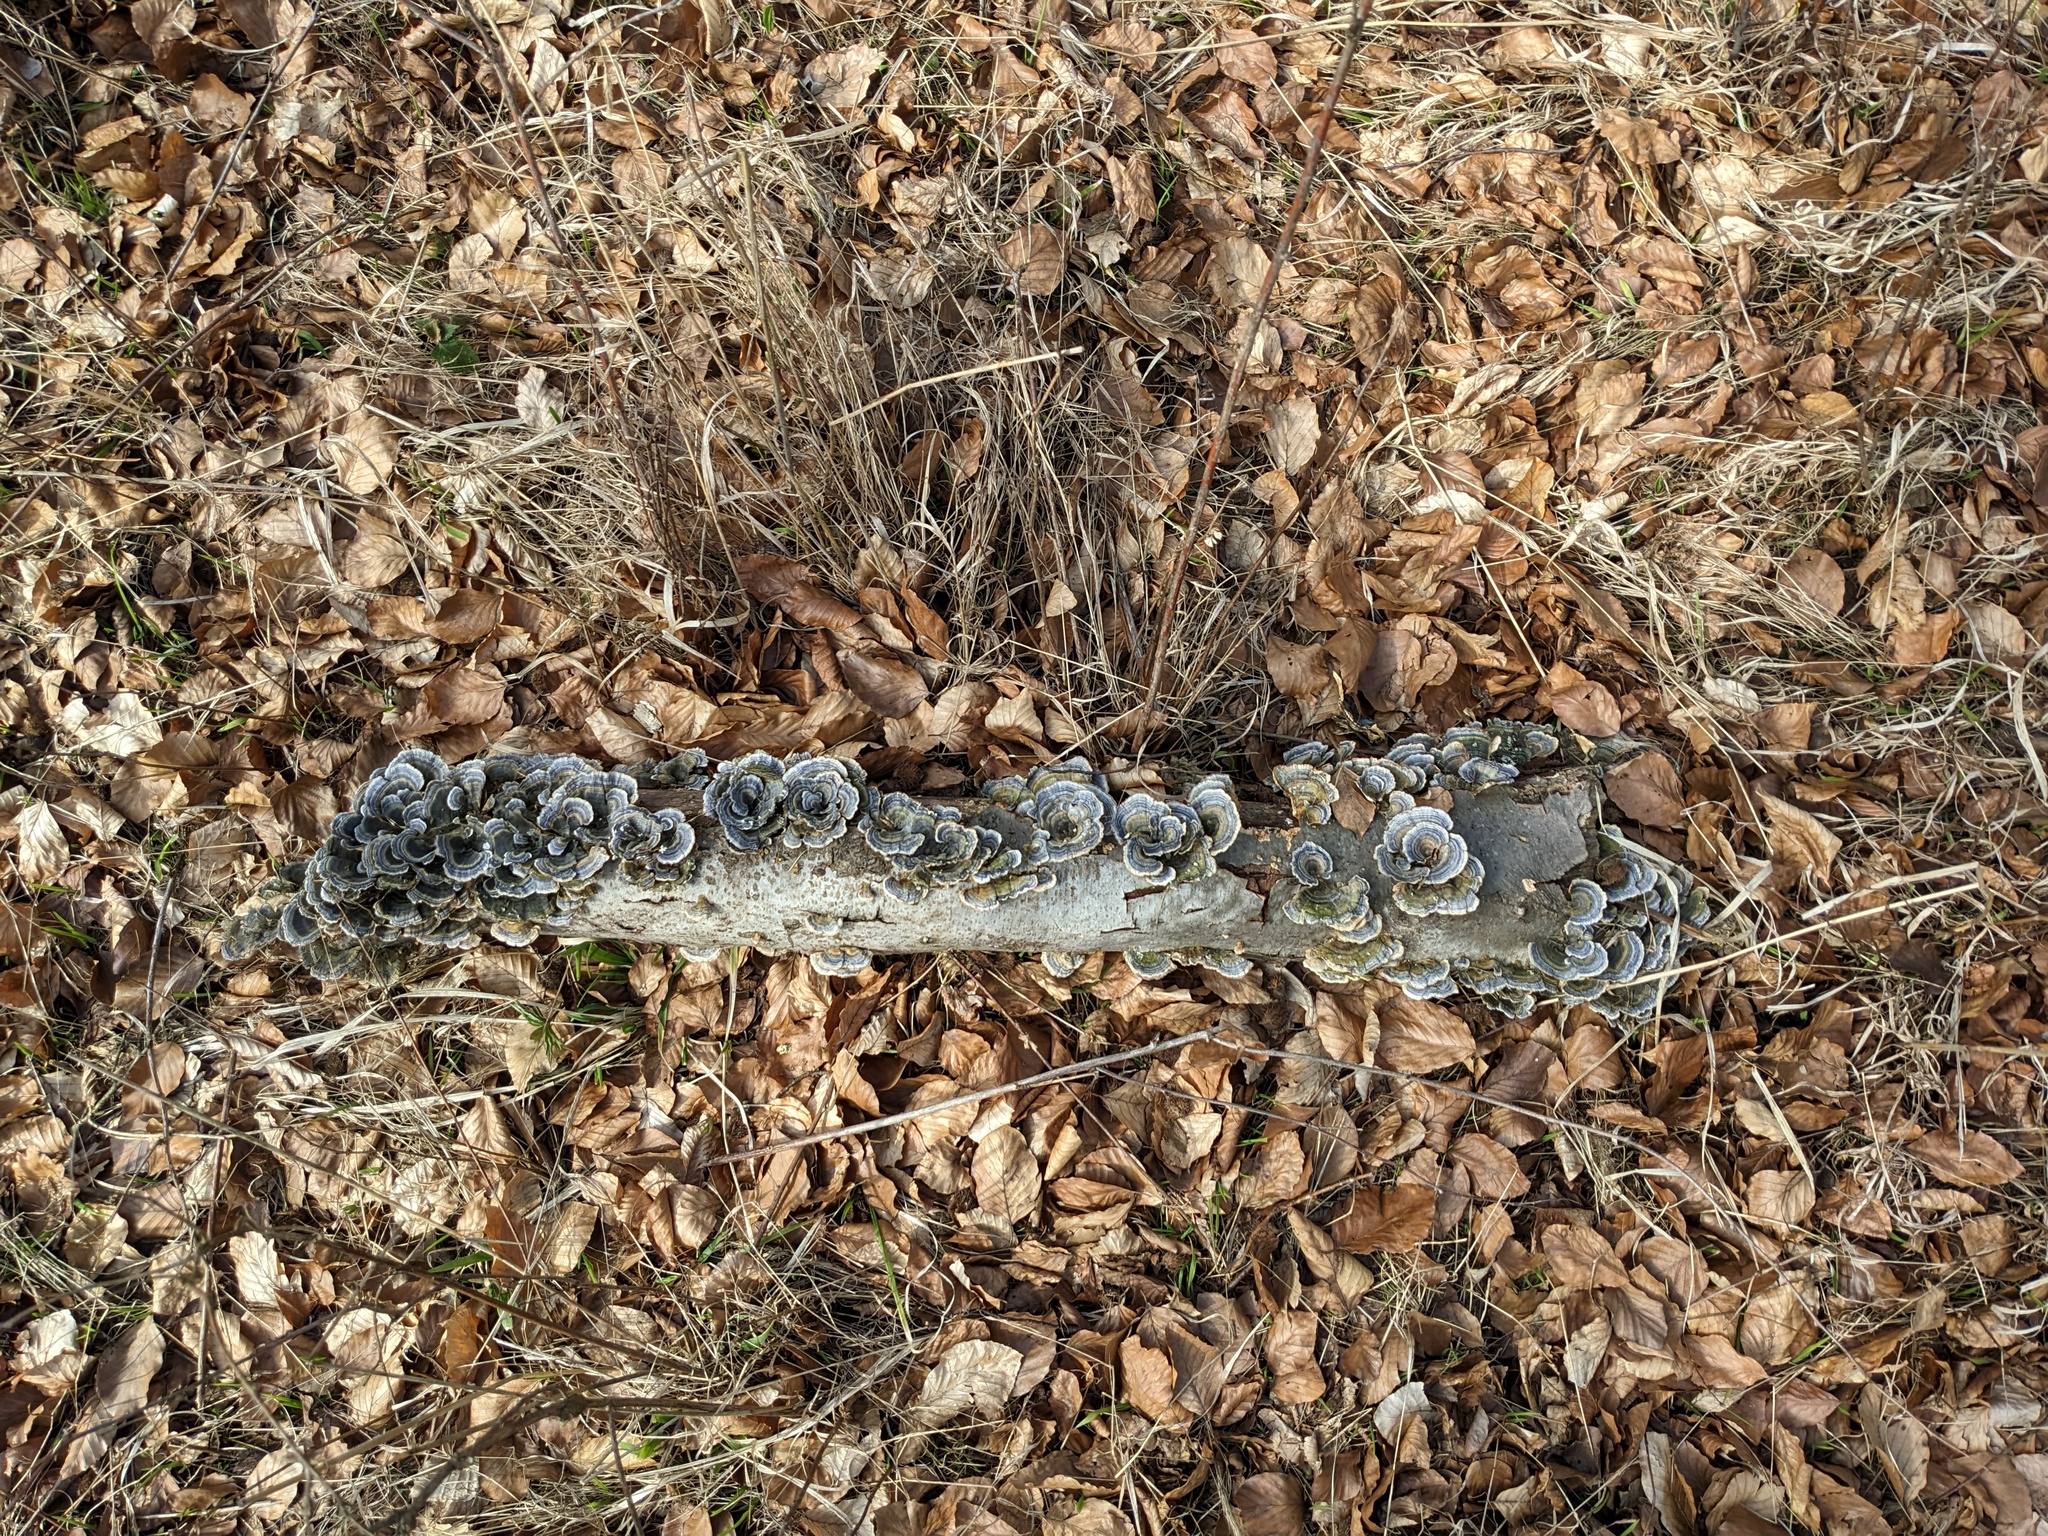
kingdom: Fungi
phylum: Basidiomycota
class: Agaricomycetes
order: Polyporales
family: Polyporaceae
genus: Trametes
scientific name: Trametes versicolor
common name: Turkeytail
